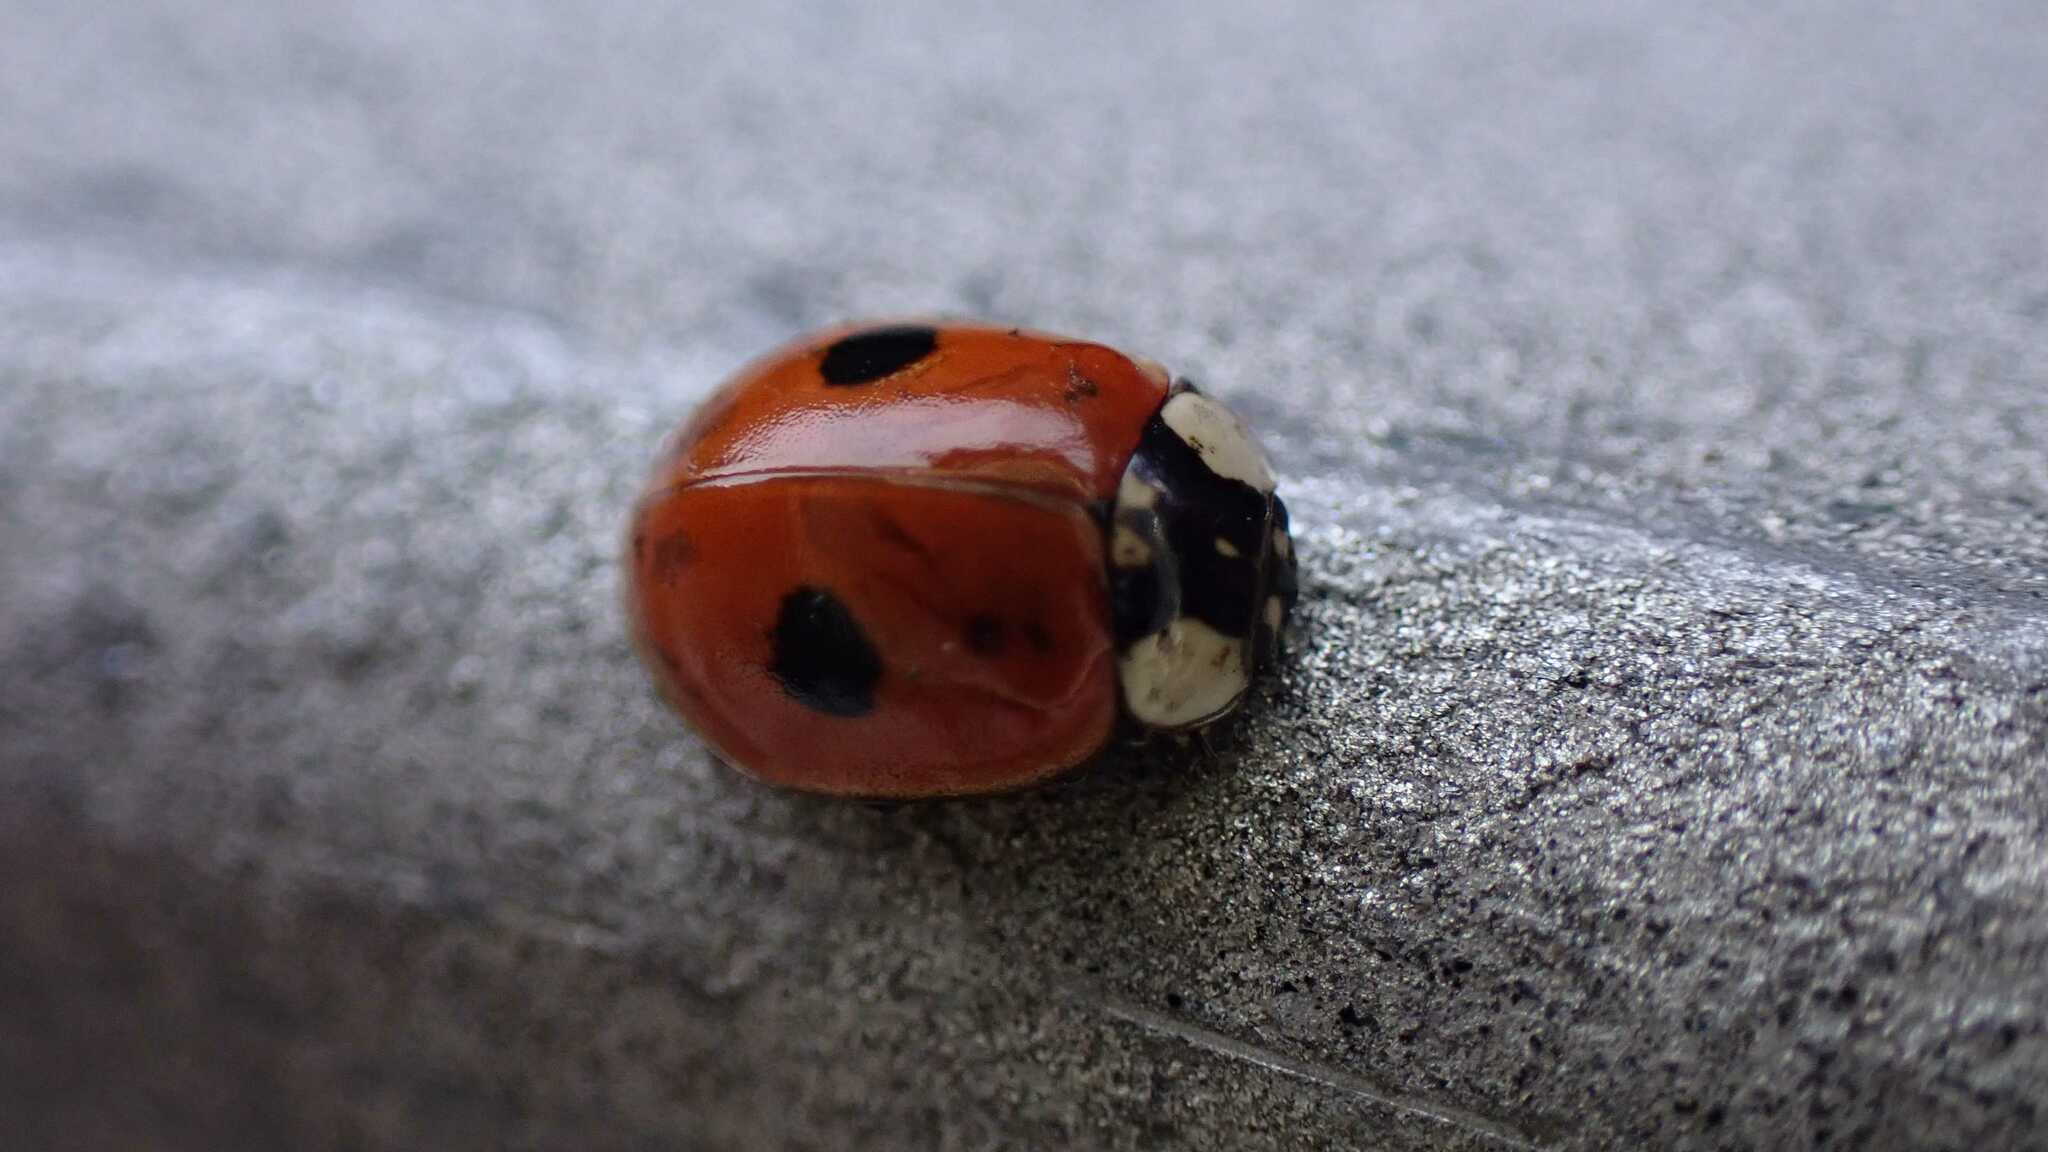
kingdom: Animalia
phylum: Arthropoda
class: Insecta
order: Coleoptera
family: Coccinellidae
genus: Adalia
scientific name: Adalia bipunctata
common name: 2-spot ladybird
